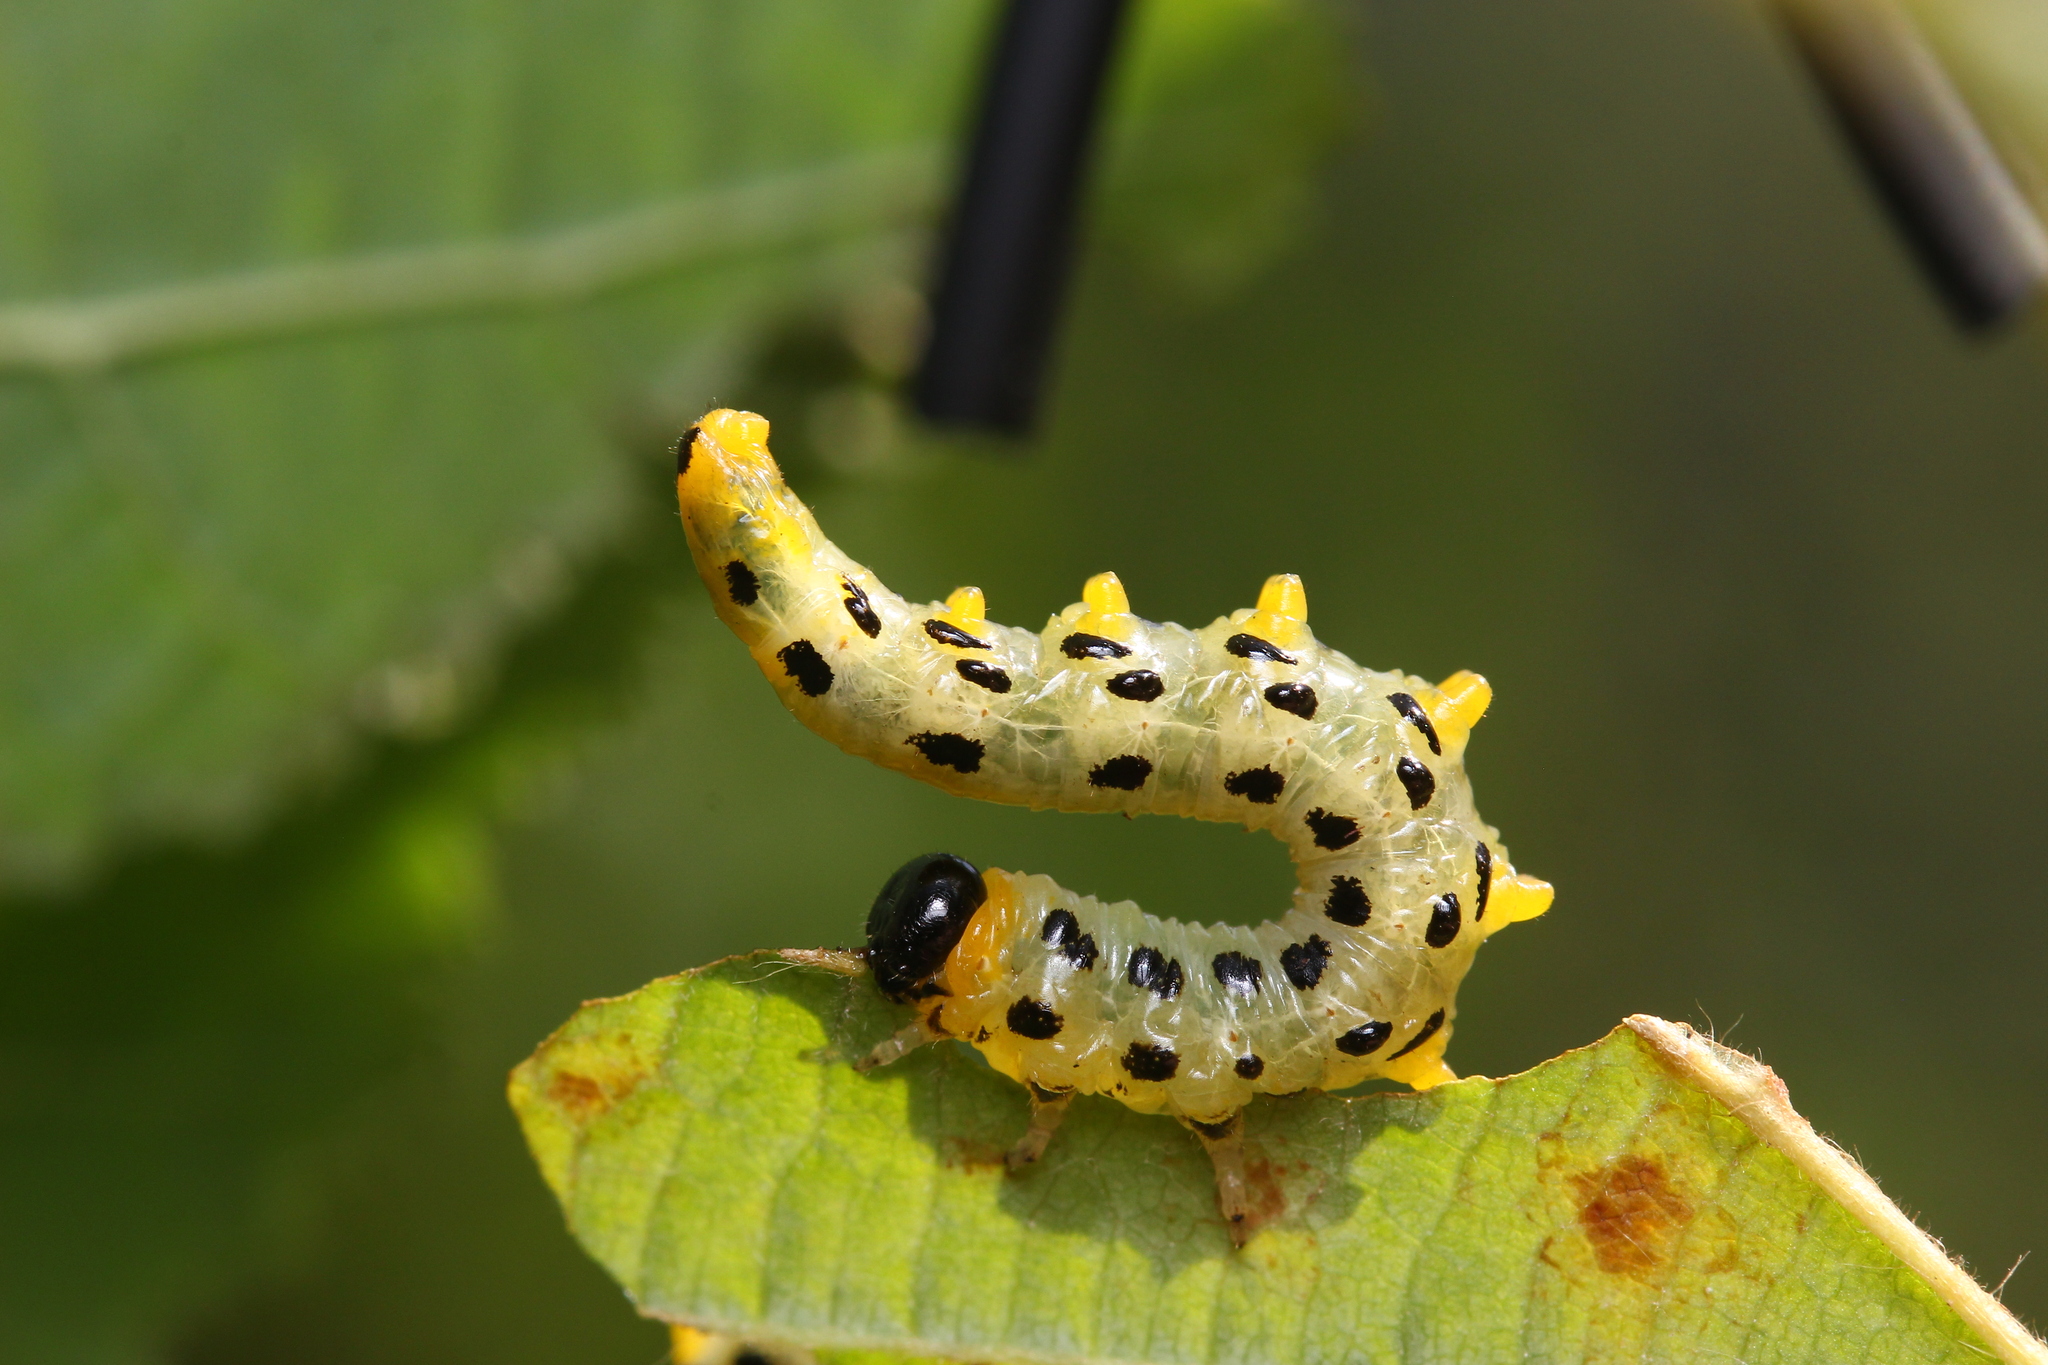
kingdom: Animalia
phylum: Arthropoda
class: Insecta
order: Hymenoptera
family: Tenthredinidae
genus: Craesus
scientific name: Craesus septentrionalis
